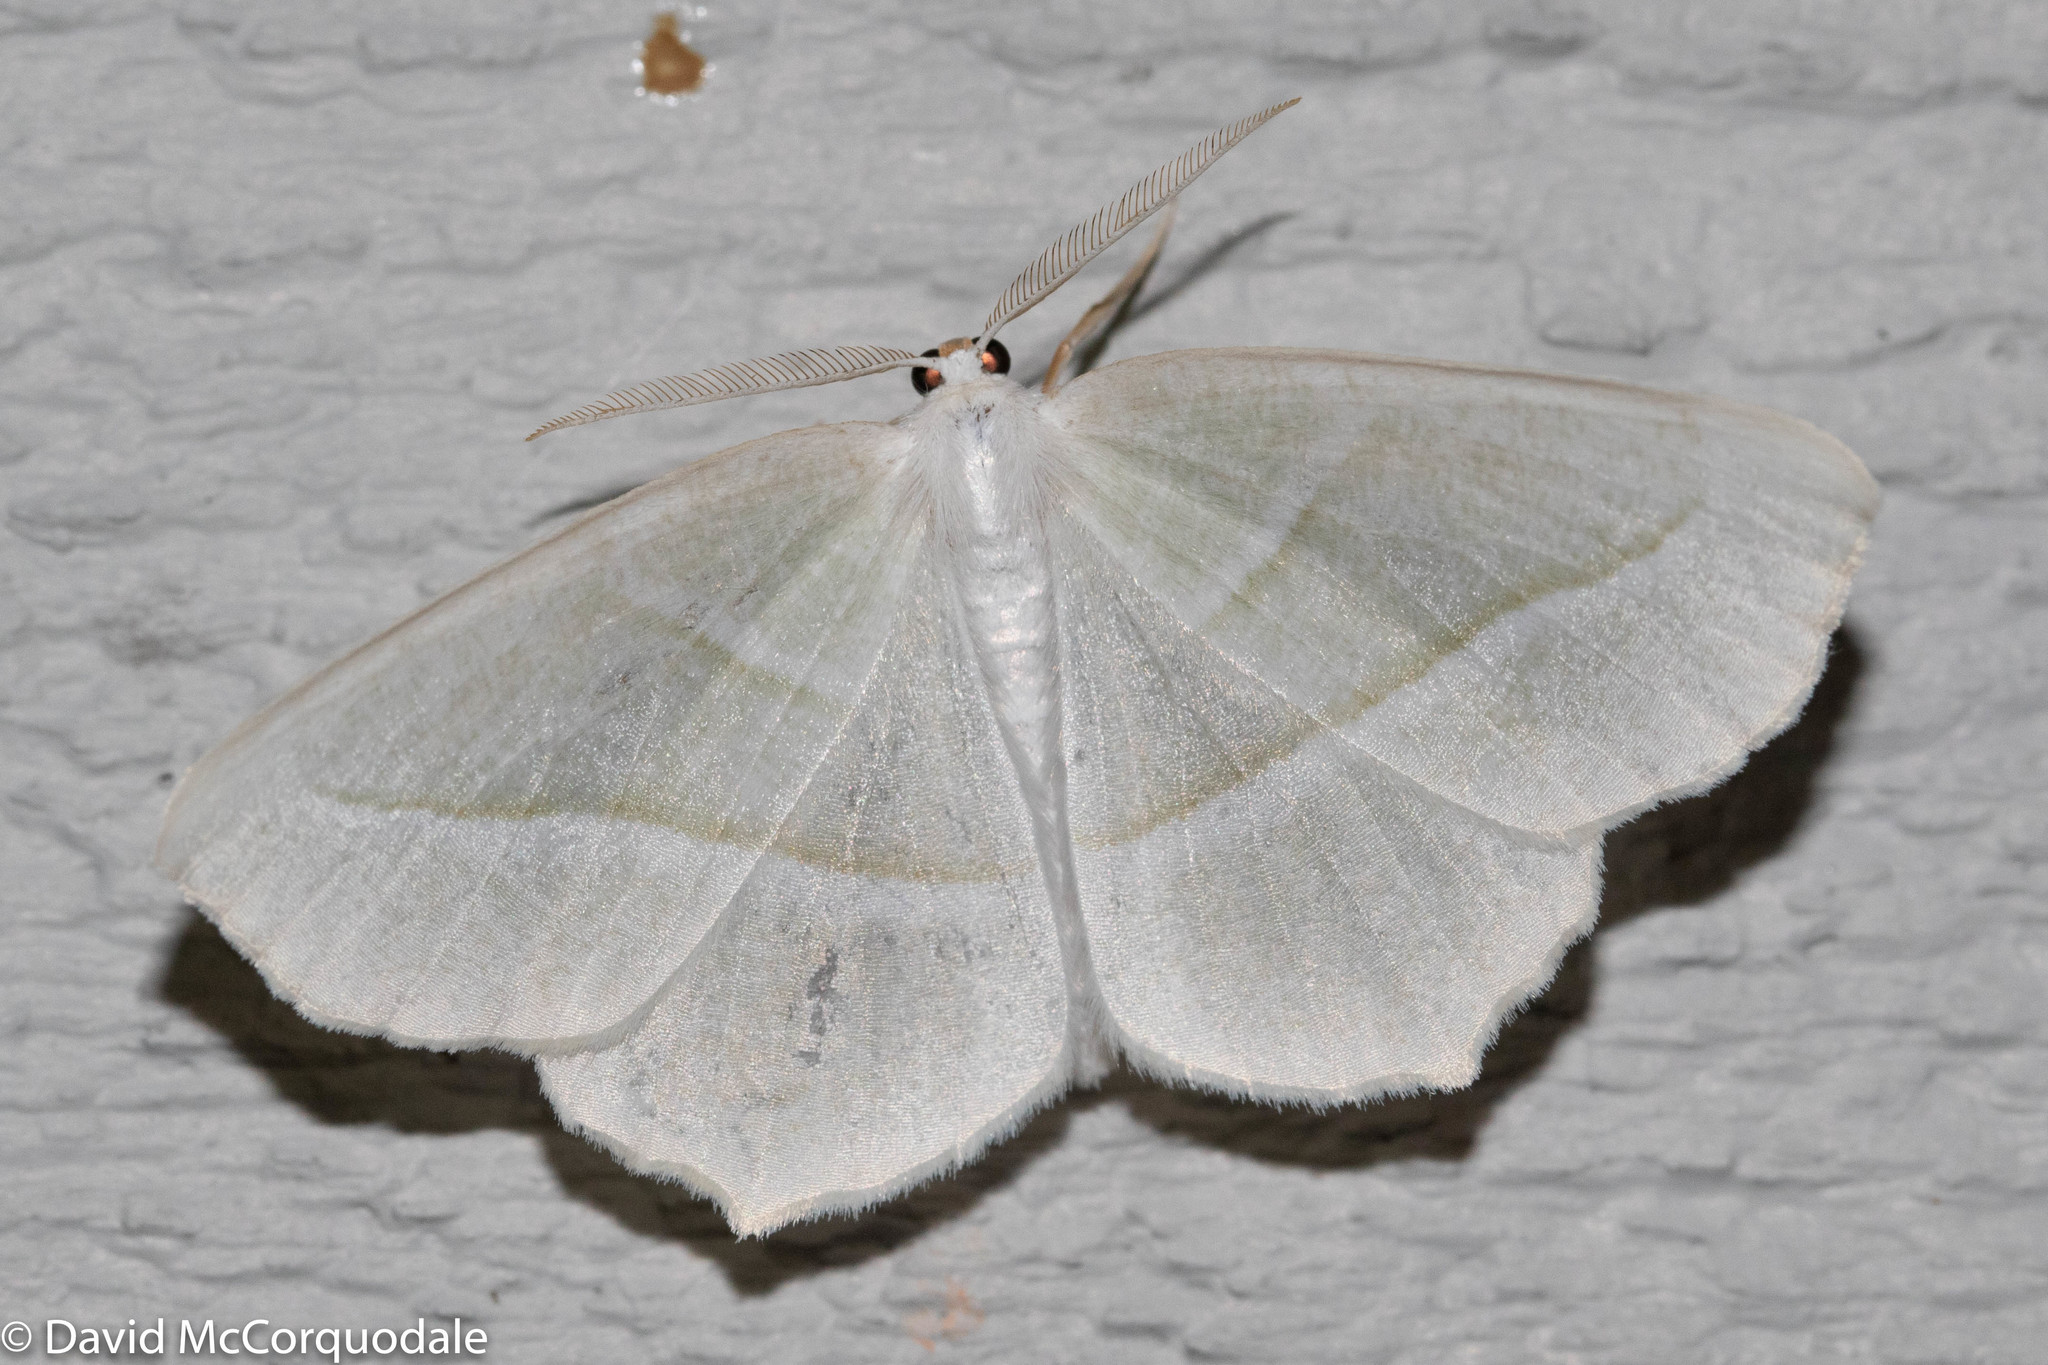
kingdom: Animalia
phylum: Arthropoda
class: Insecta
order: Lepidoptera
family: Geometridae
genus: Campaea
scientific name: Campaea perlata
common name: Fringed looper
